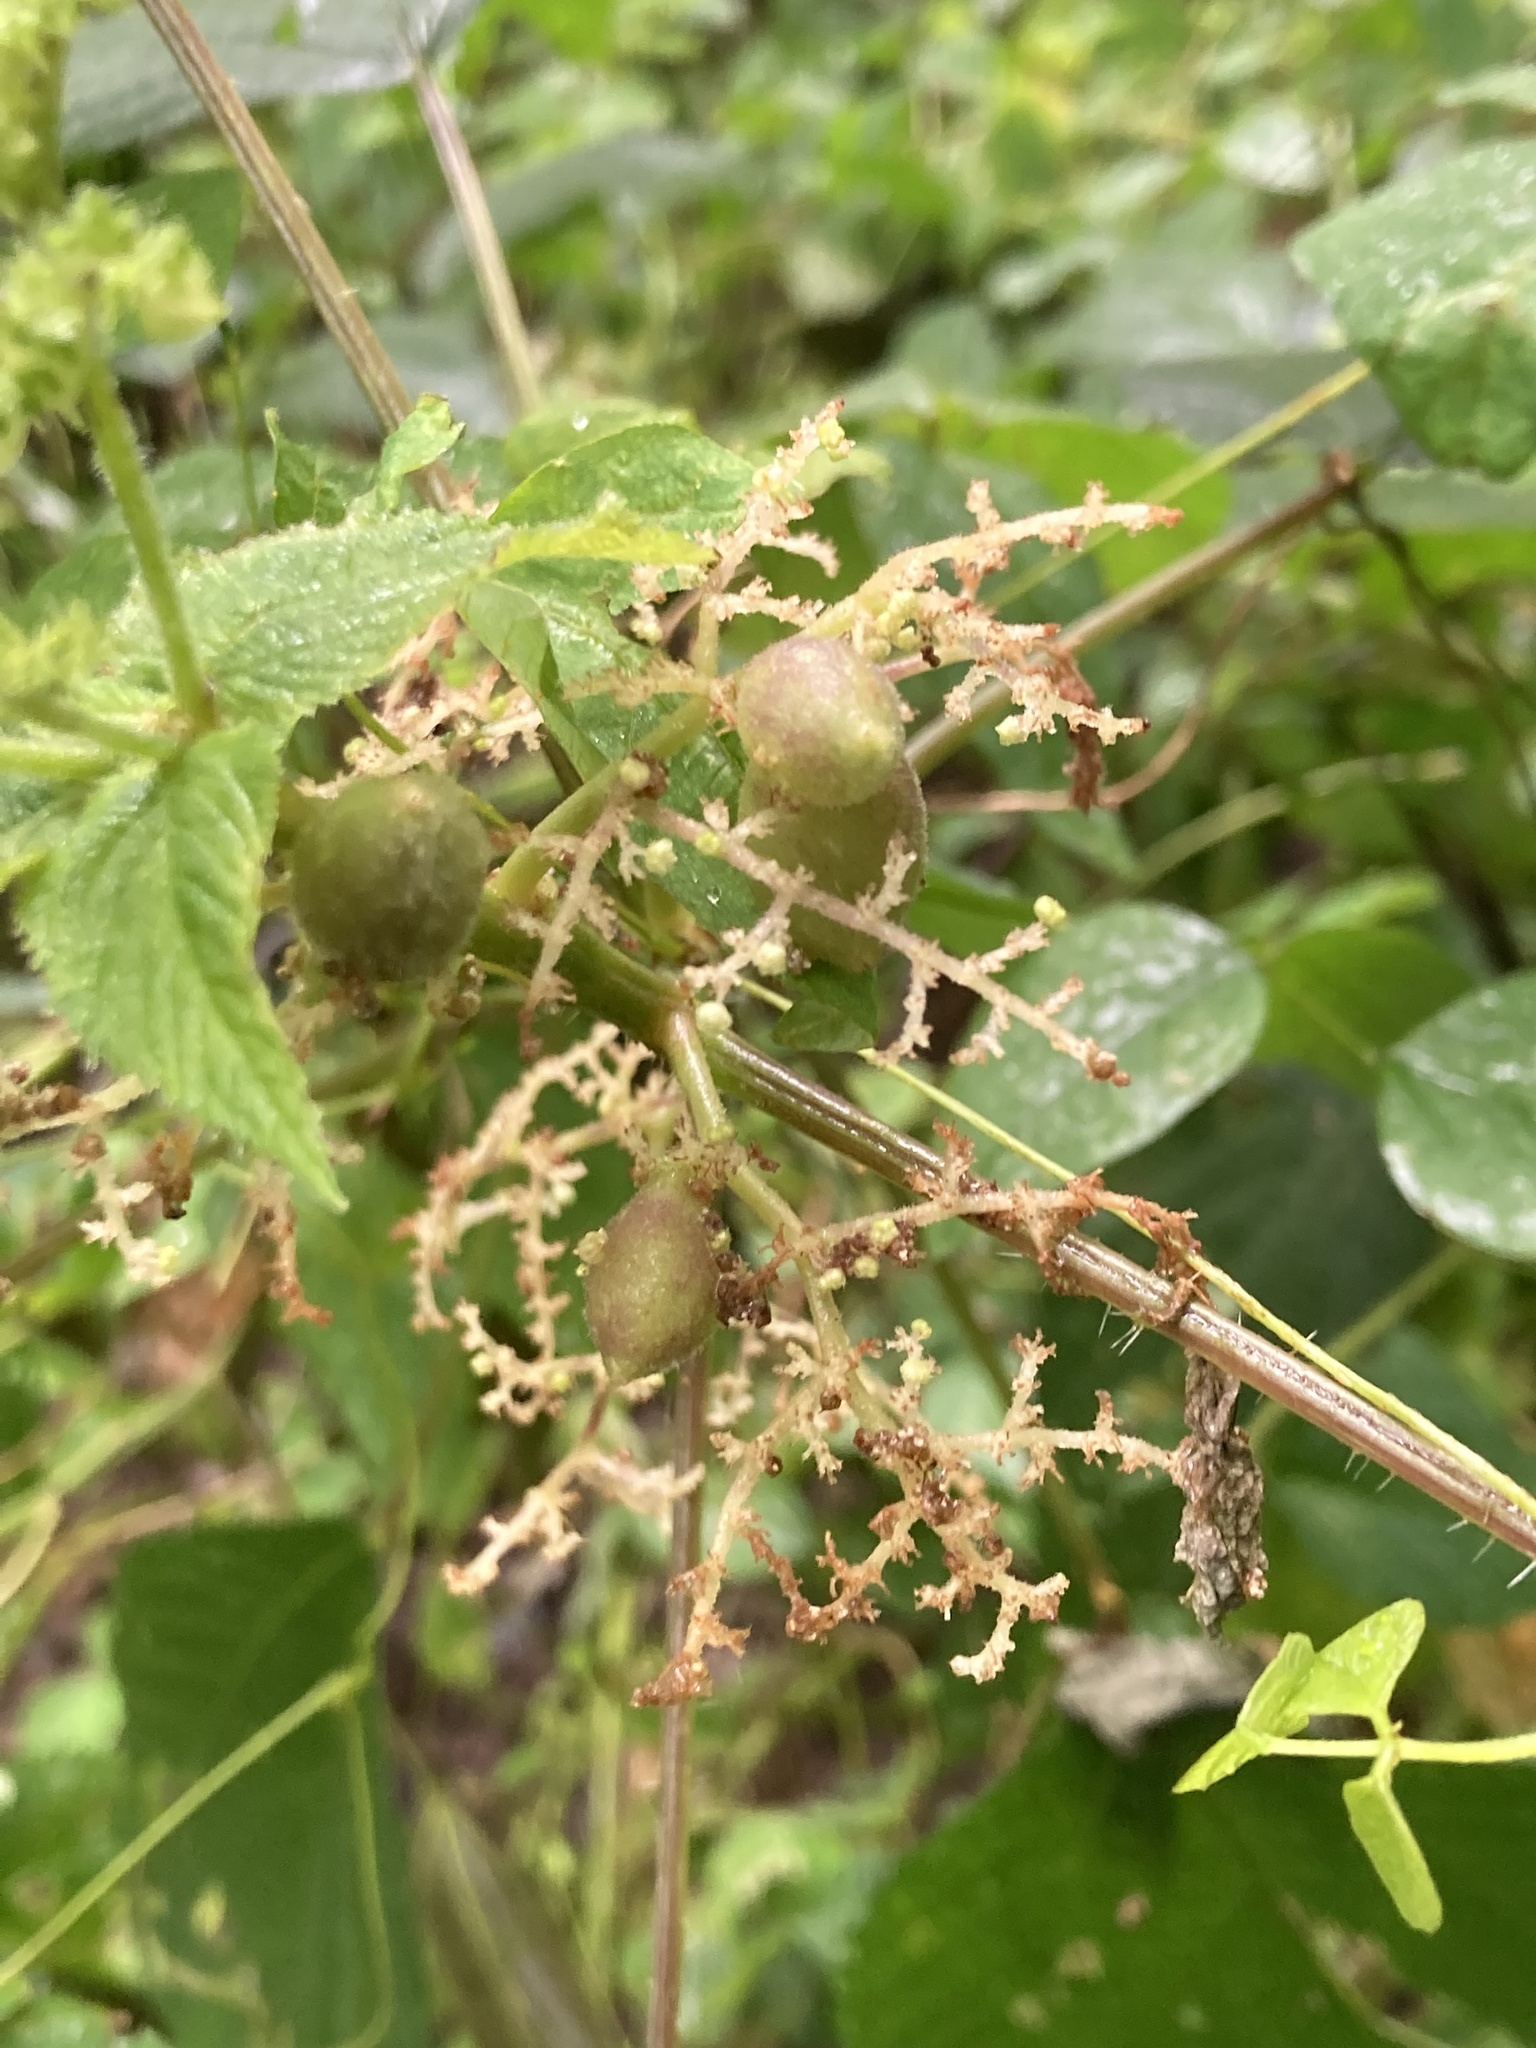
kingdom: Animalia
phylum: Arthropoda
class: Insecta
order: Diptera
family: Cecidomyiidae
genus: Dasineura
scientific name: Dasineura involuta
